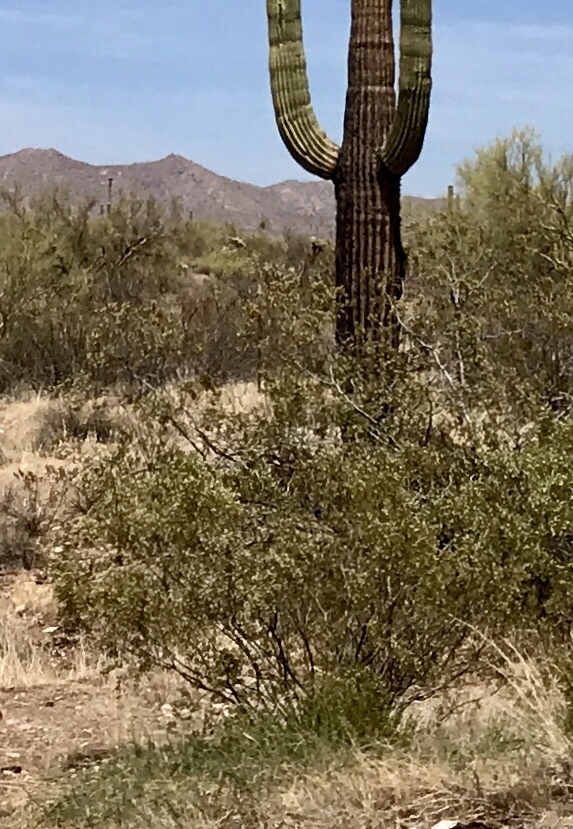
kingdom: Plantae
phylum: Tracheophyta
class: Magnoliopsida
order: Zygophyllales
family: Zygophyllaceae
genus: Larrea
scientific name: Larrea tridentata
